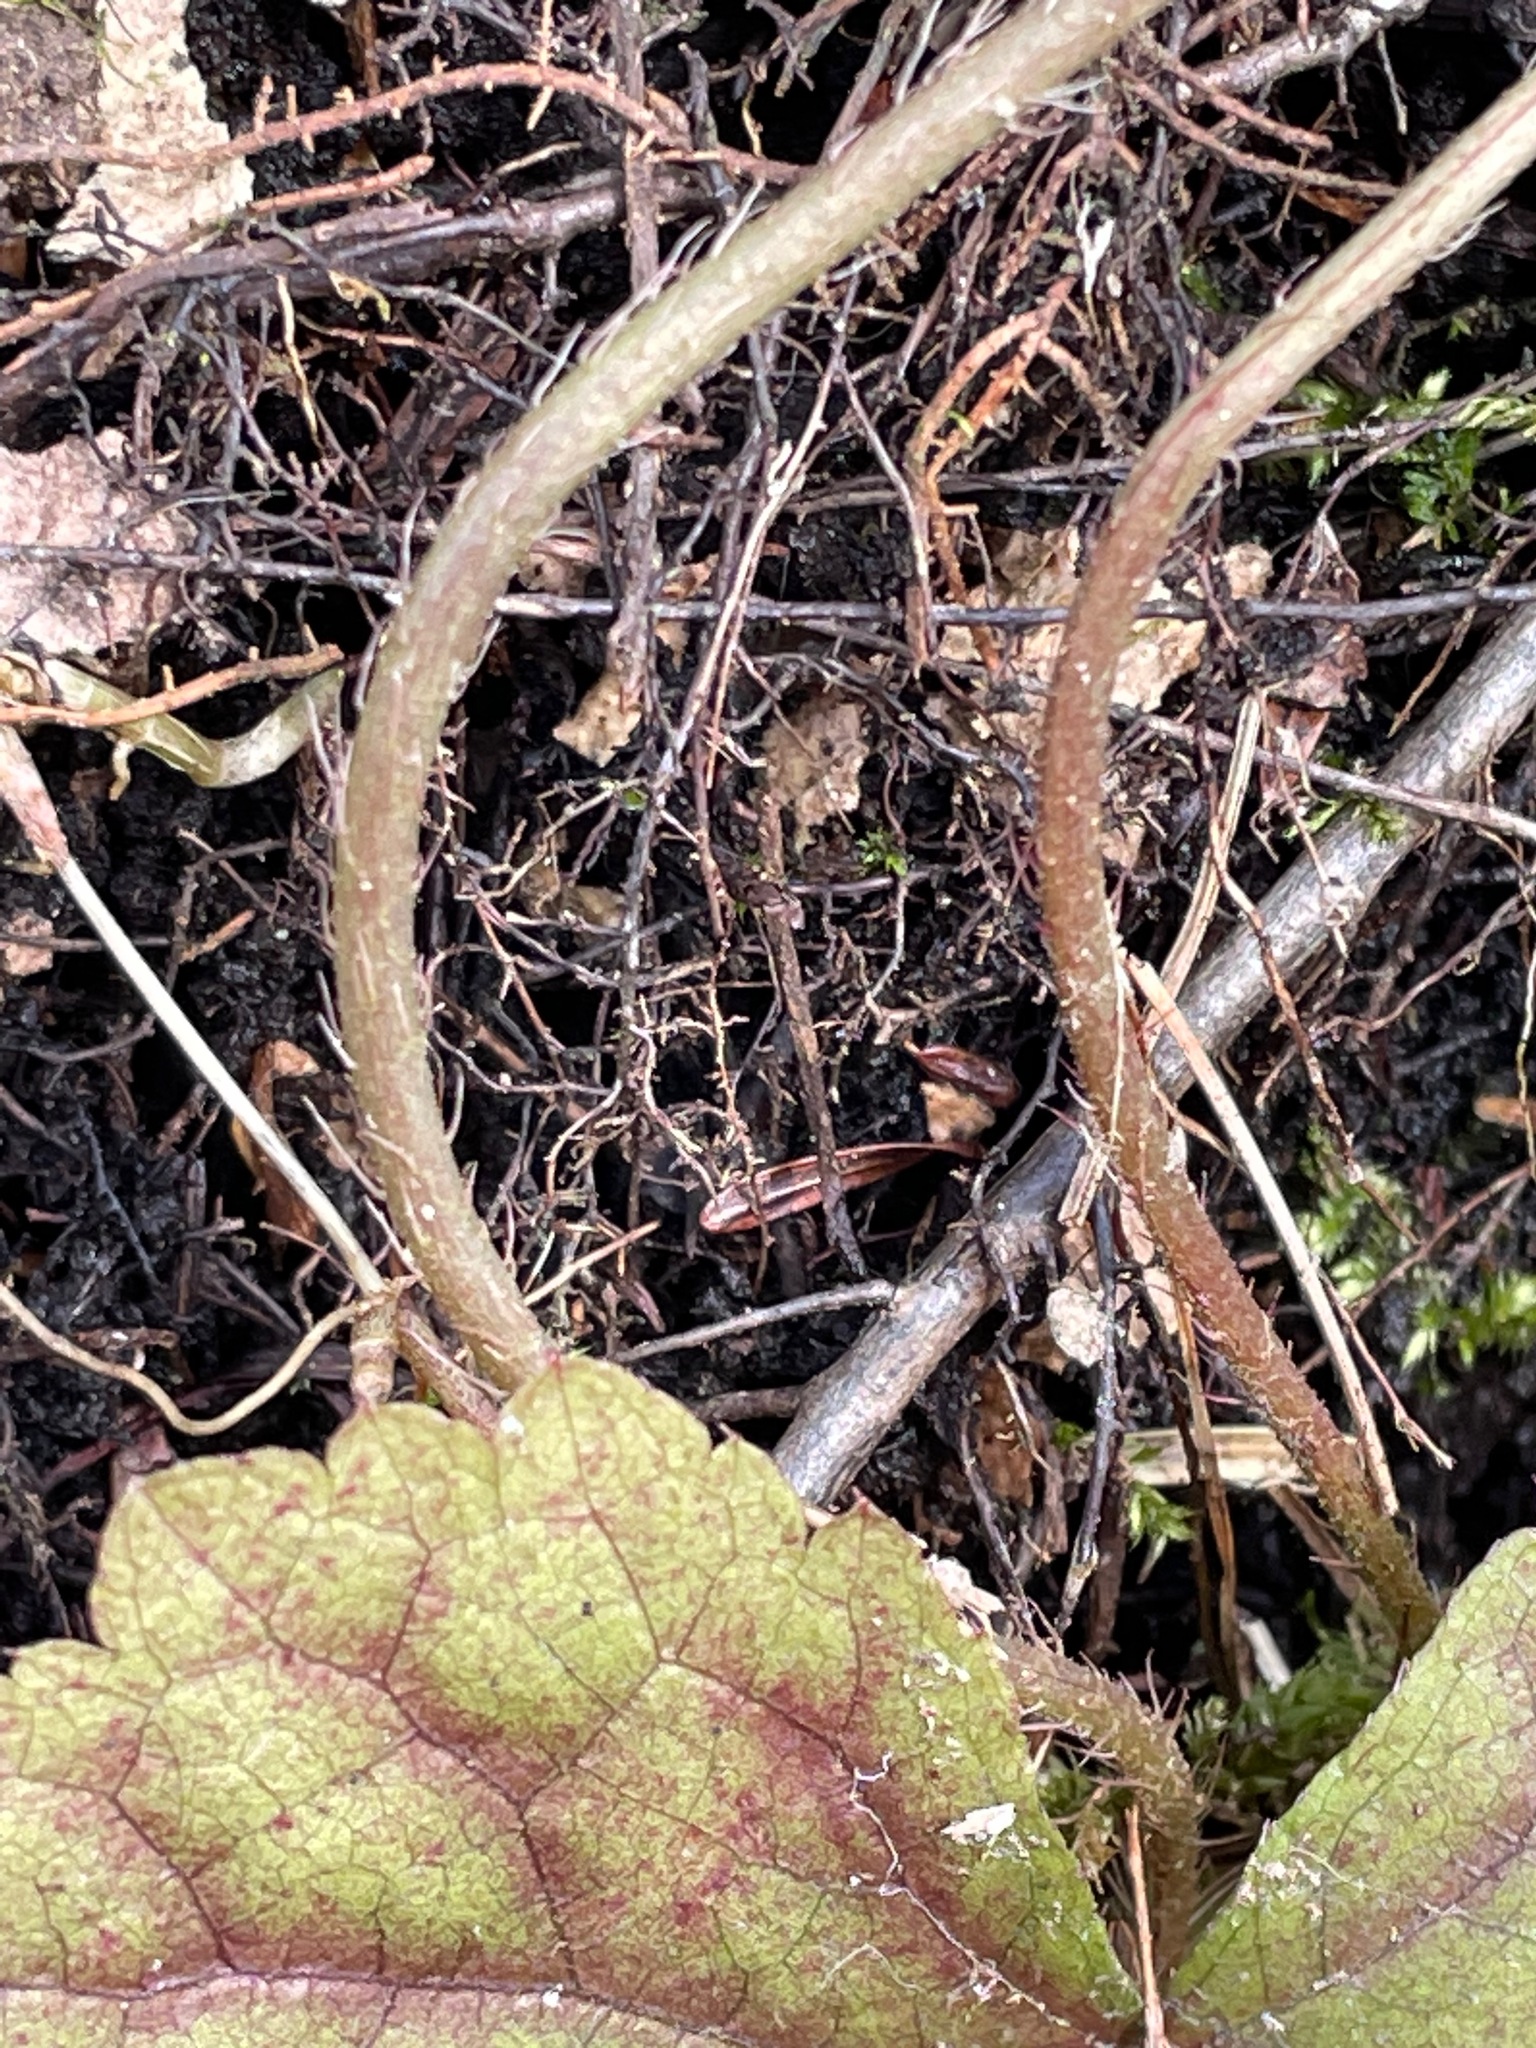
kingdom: Plantae
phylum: Tracheophyta
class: Magnoliopsida
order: Saxifragales
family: Saxifragaceae
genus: Mitella
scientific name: Mitella diphylla
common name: Coolwort
